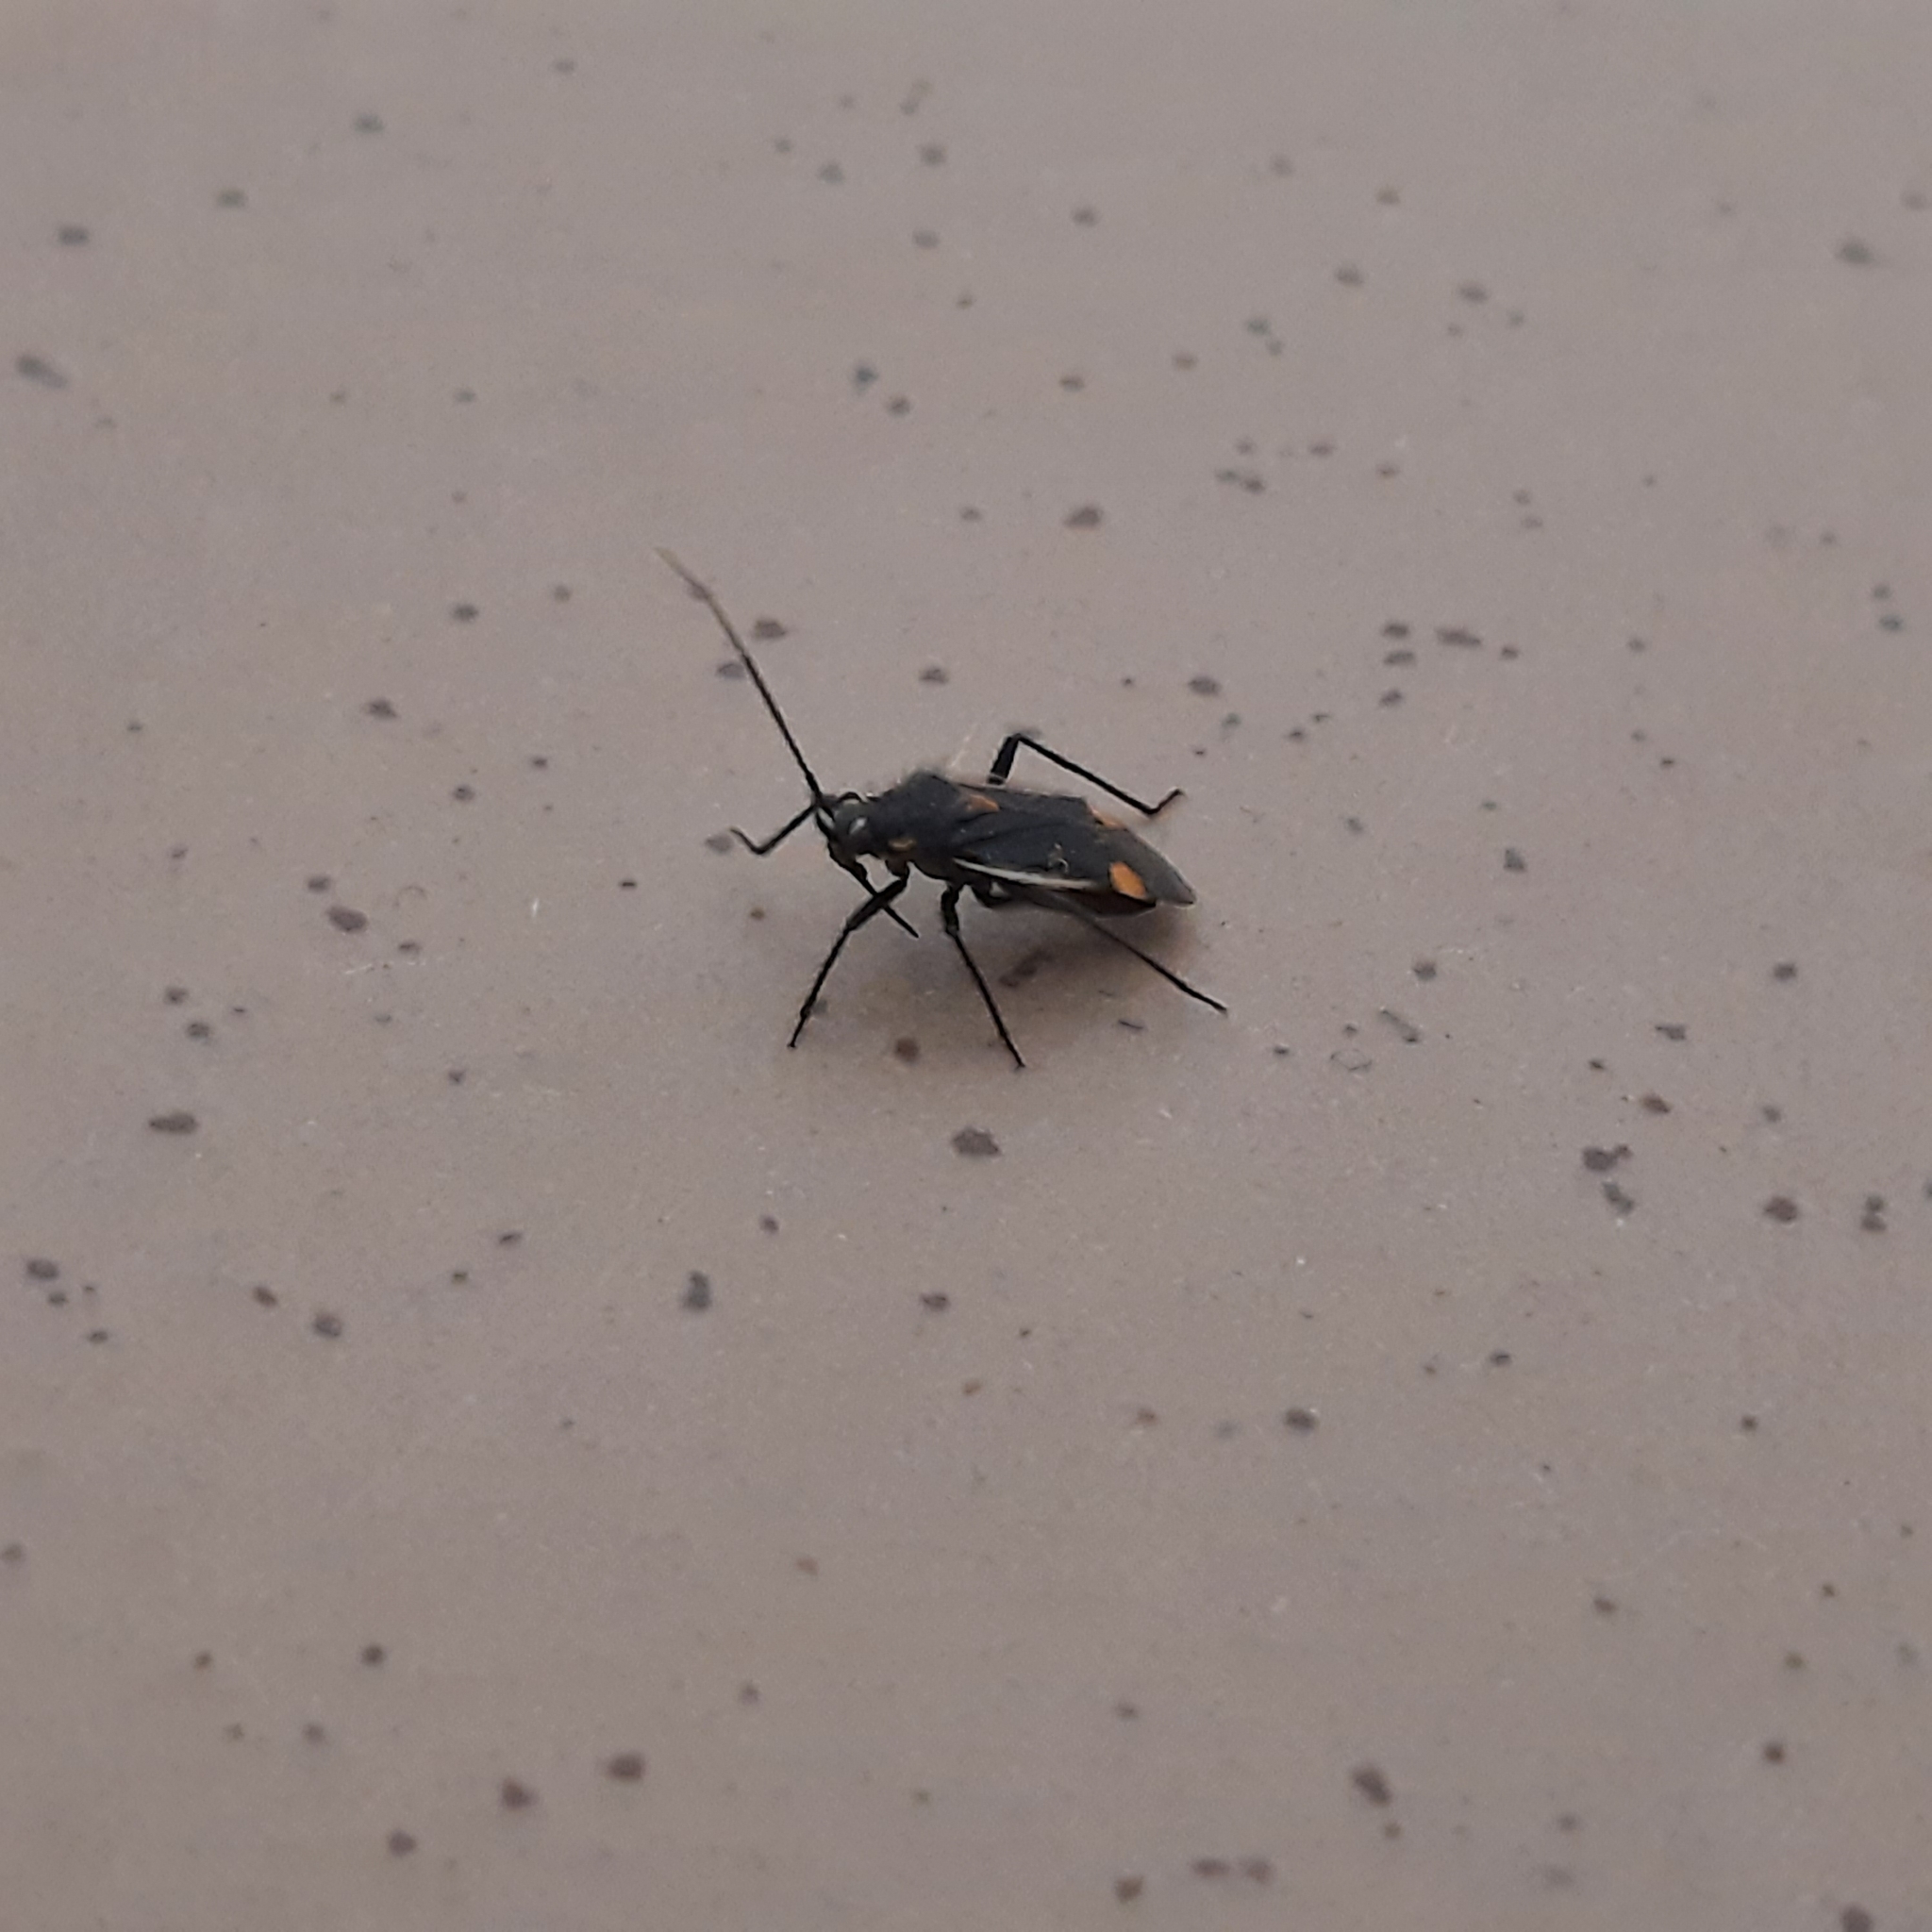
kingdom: Animalia
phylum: Arthropoda
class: Insecta
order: Hemiptera
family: Miridae
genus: Capsodes
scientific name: Capsodes gothicus
